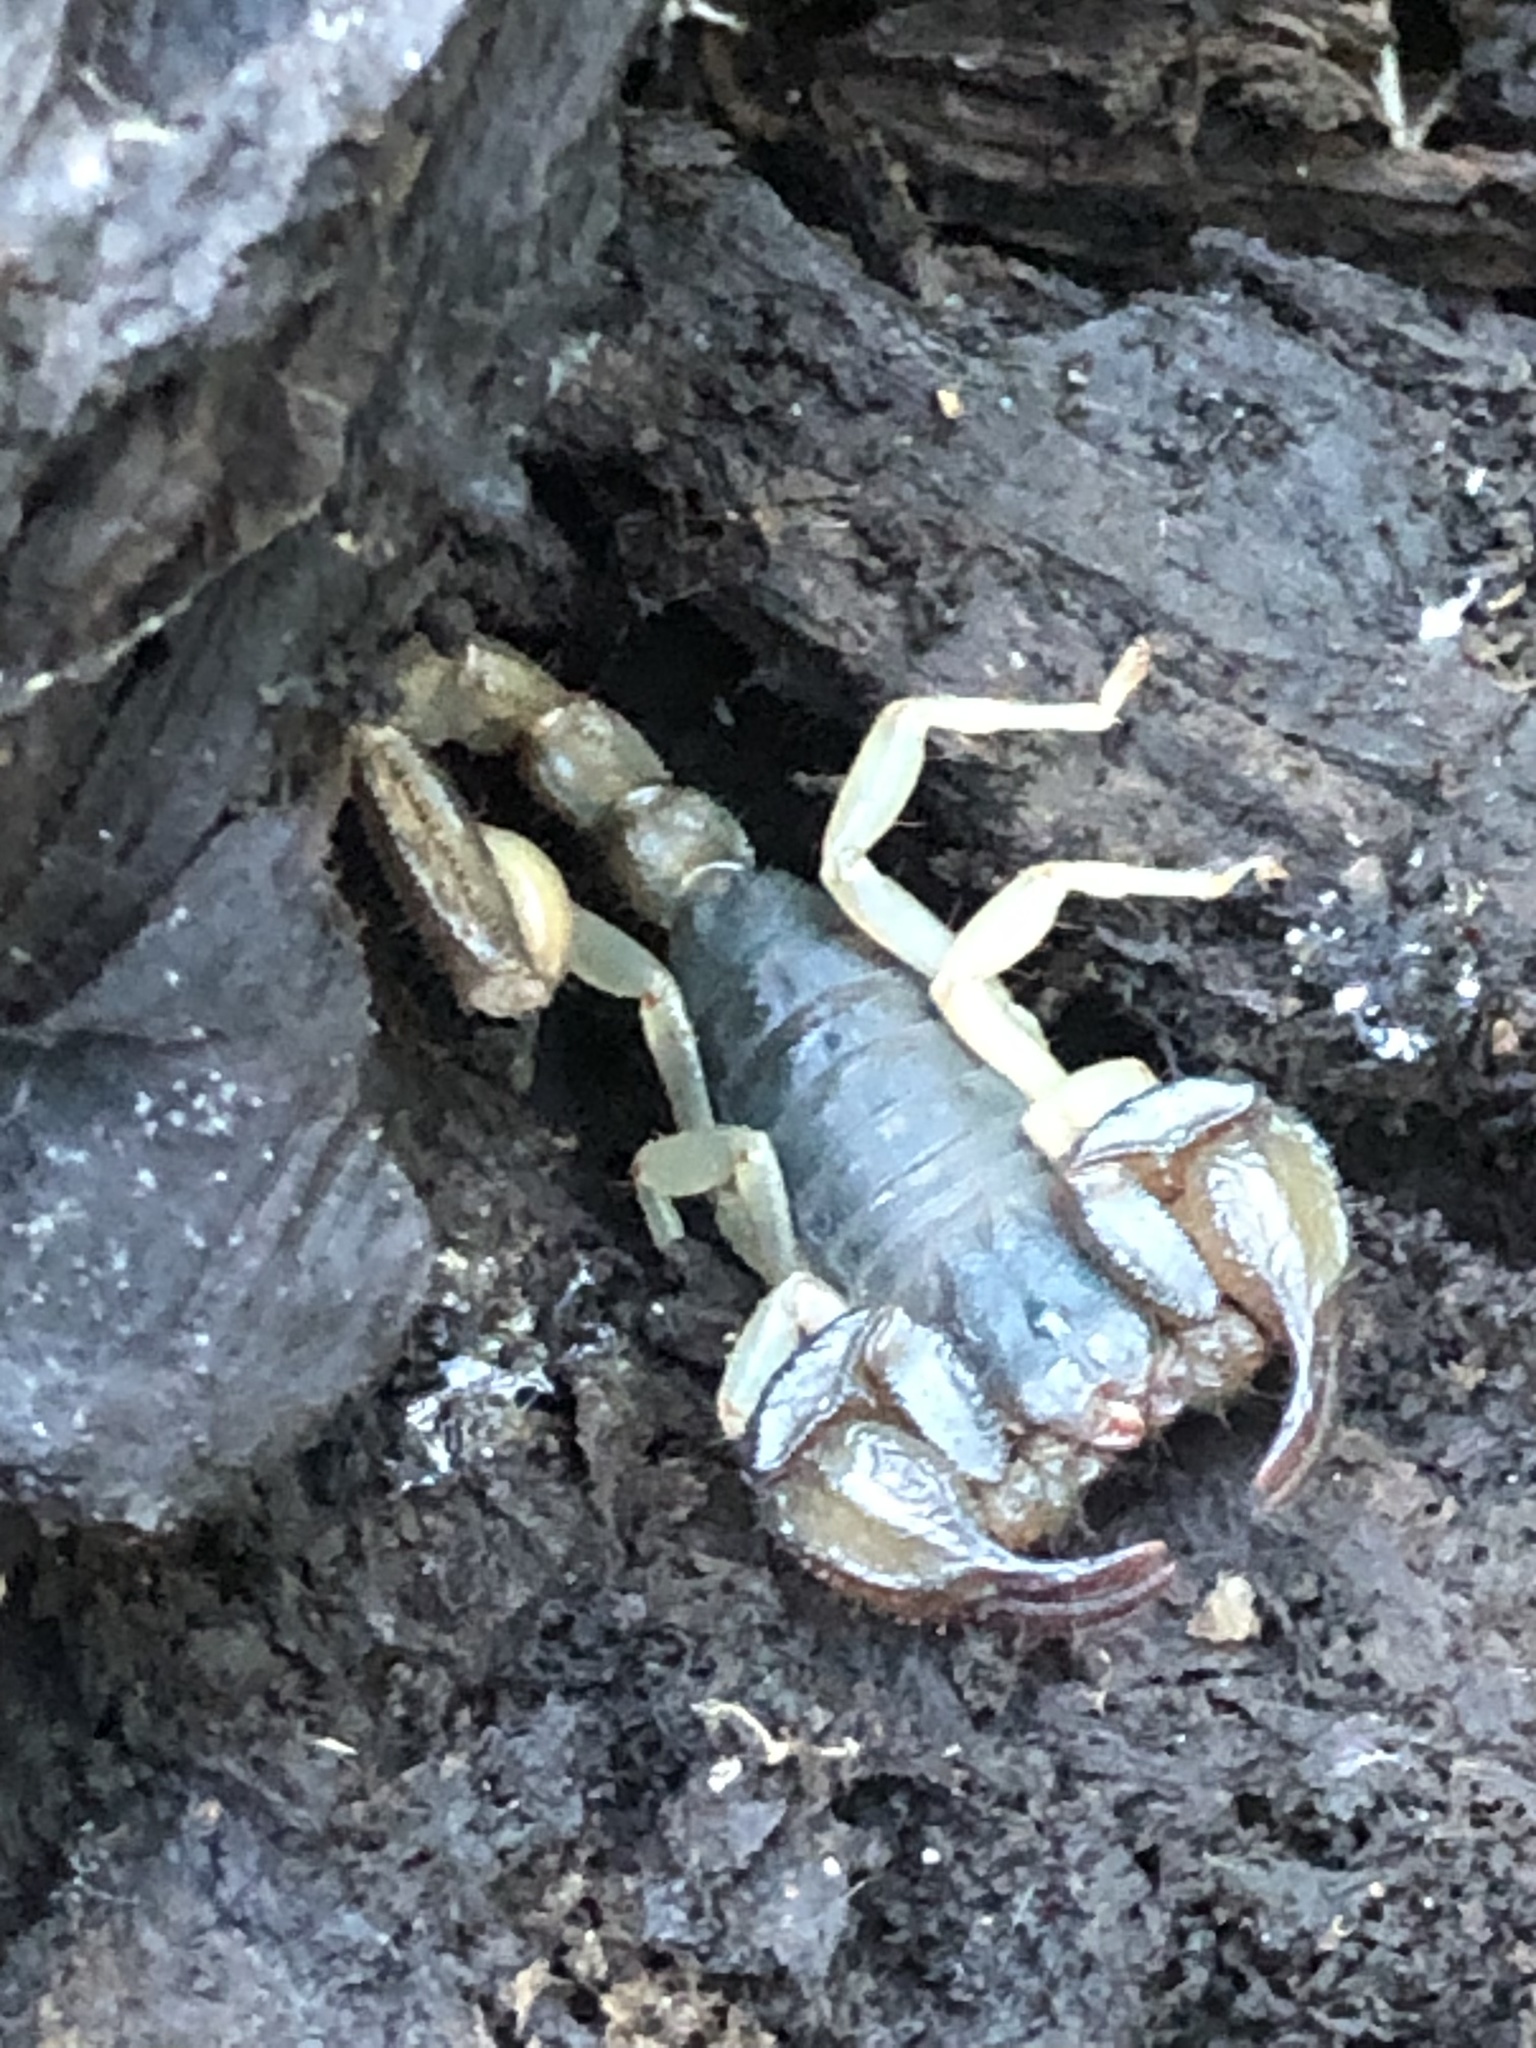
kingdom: Animalia
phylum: Arthropoda
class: Arachnida
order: Scorpiones
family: Chactidae
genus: Uroctonus
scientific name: Uroctonus mordax
